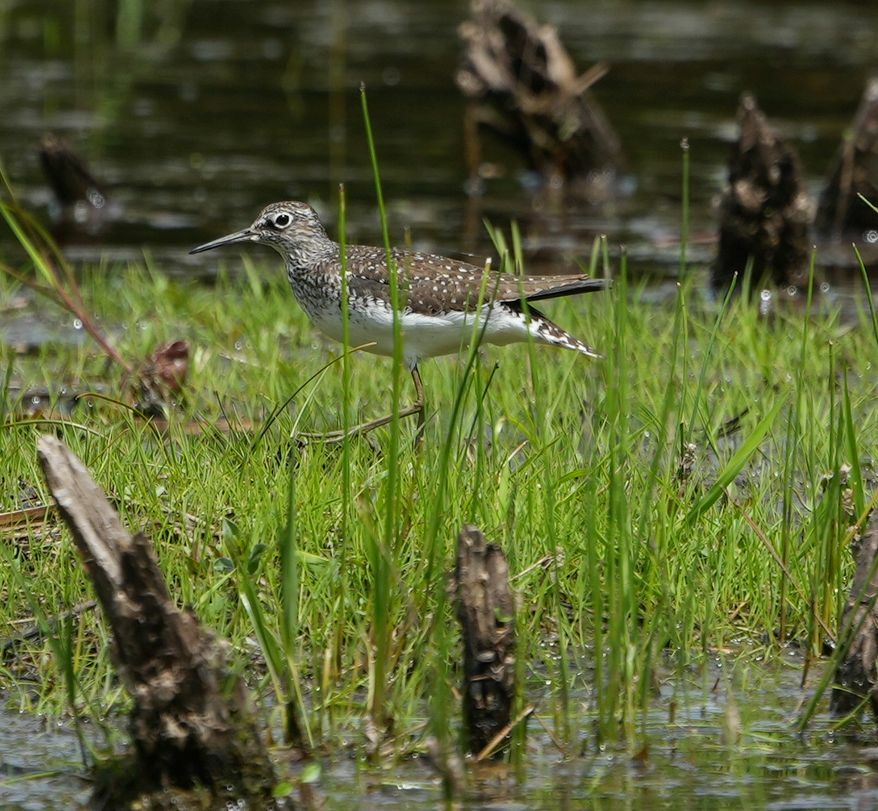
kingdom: Animalia
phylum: Chordata
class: Aves
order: Charadriiformes
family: Scolopacidae
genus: Tringa
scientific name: Tringa solitaria
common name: Solitary sandpiper
